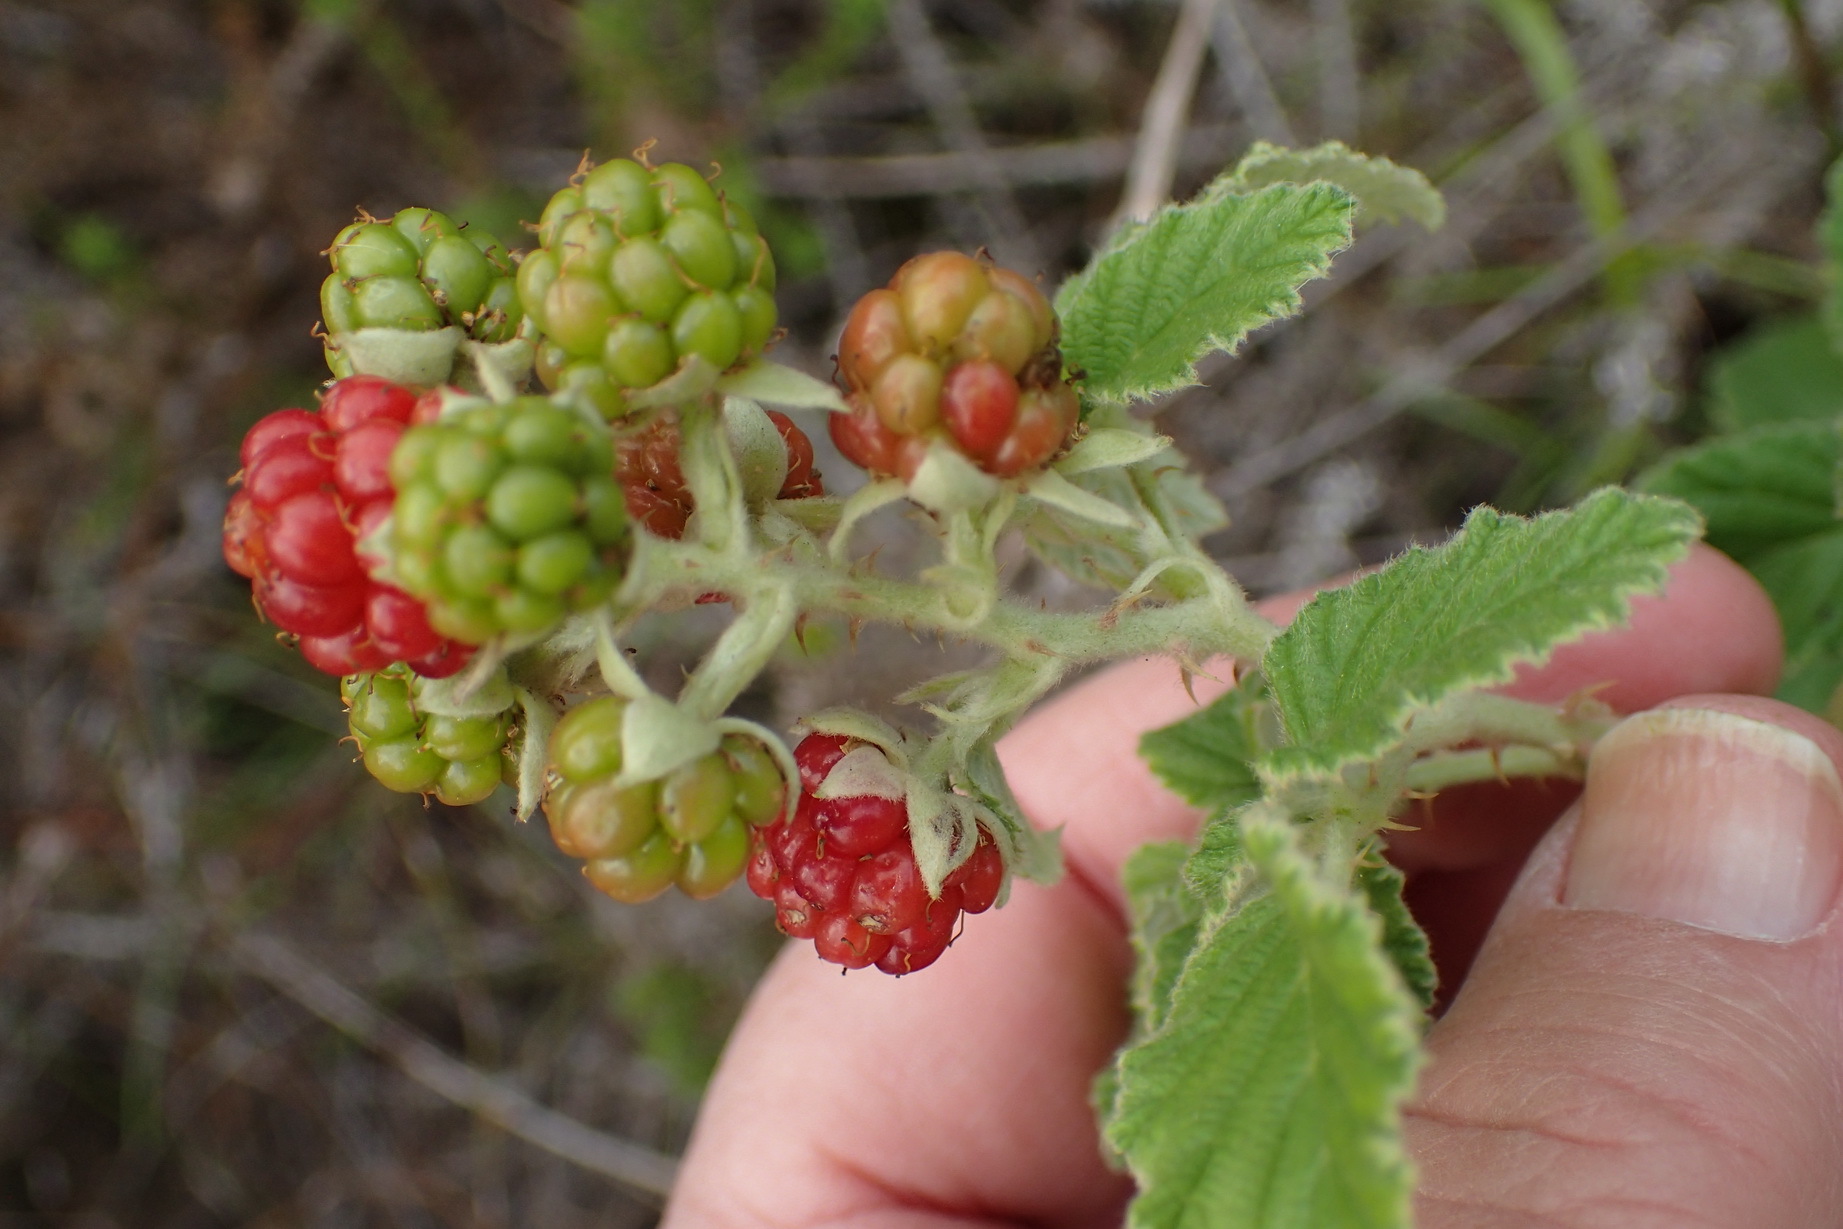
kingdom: Plantae
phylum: Tracheophyta
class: Magnoliopsida
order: Rosales
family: Rosaceae
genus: Rubus
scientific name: Rubus rigidus
